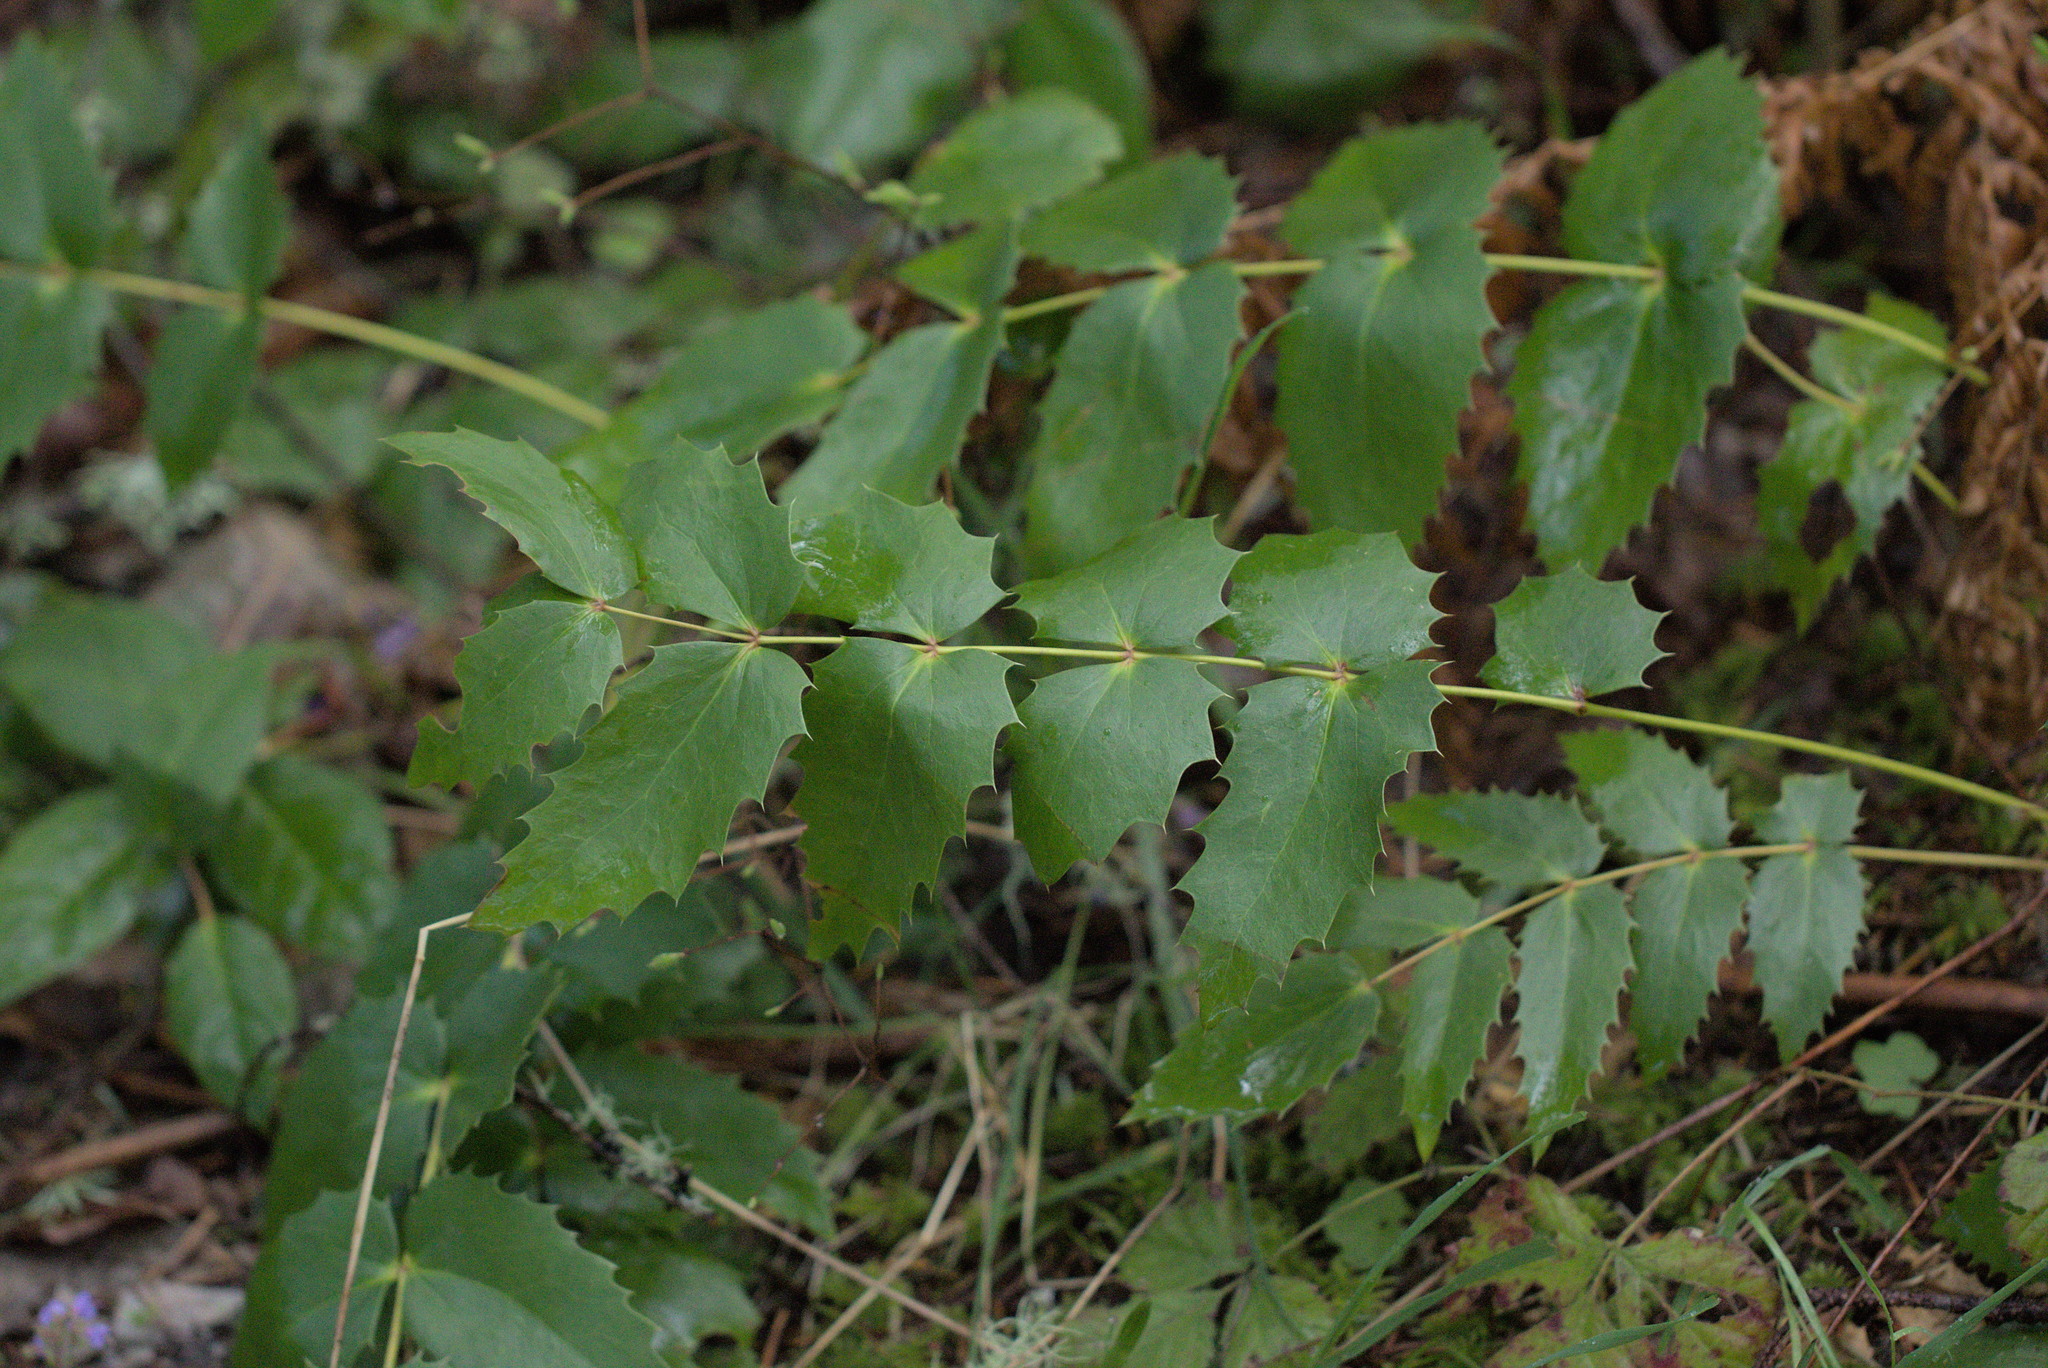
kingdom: Plantae
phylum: Tracheophyta
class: Magnoliopsida
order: Ranunculales
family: Berberidaceae
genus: Mahonia
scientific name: Mahonia nervosa
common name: Cascade oregon-grape
